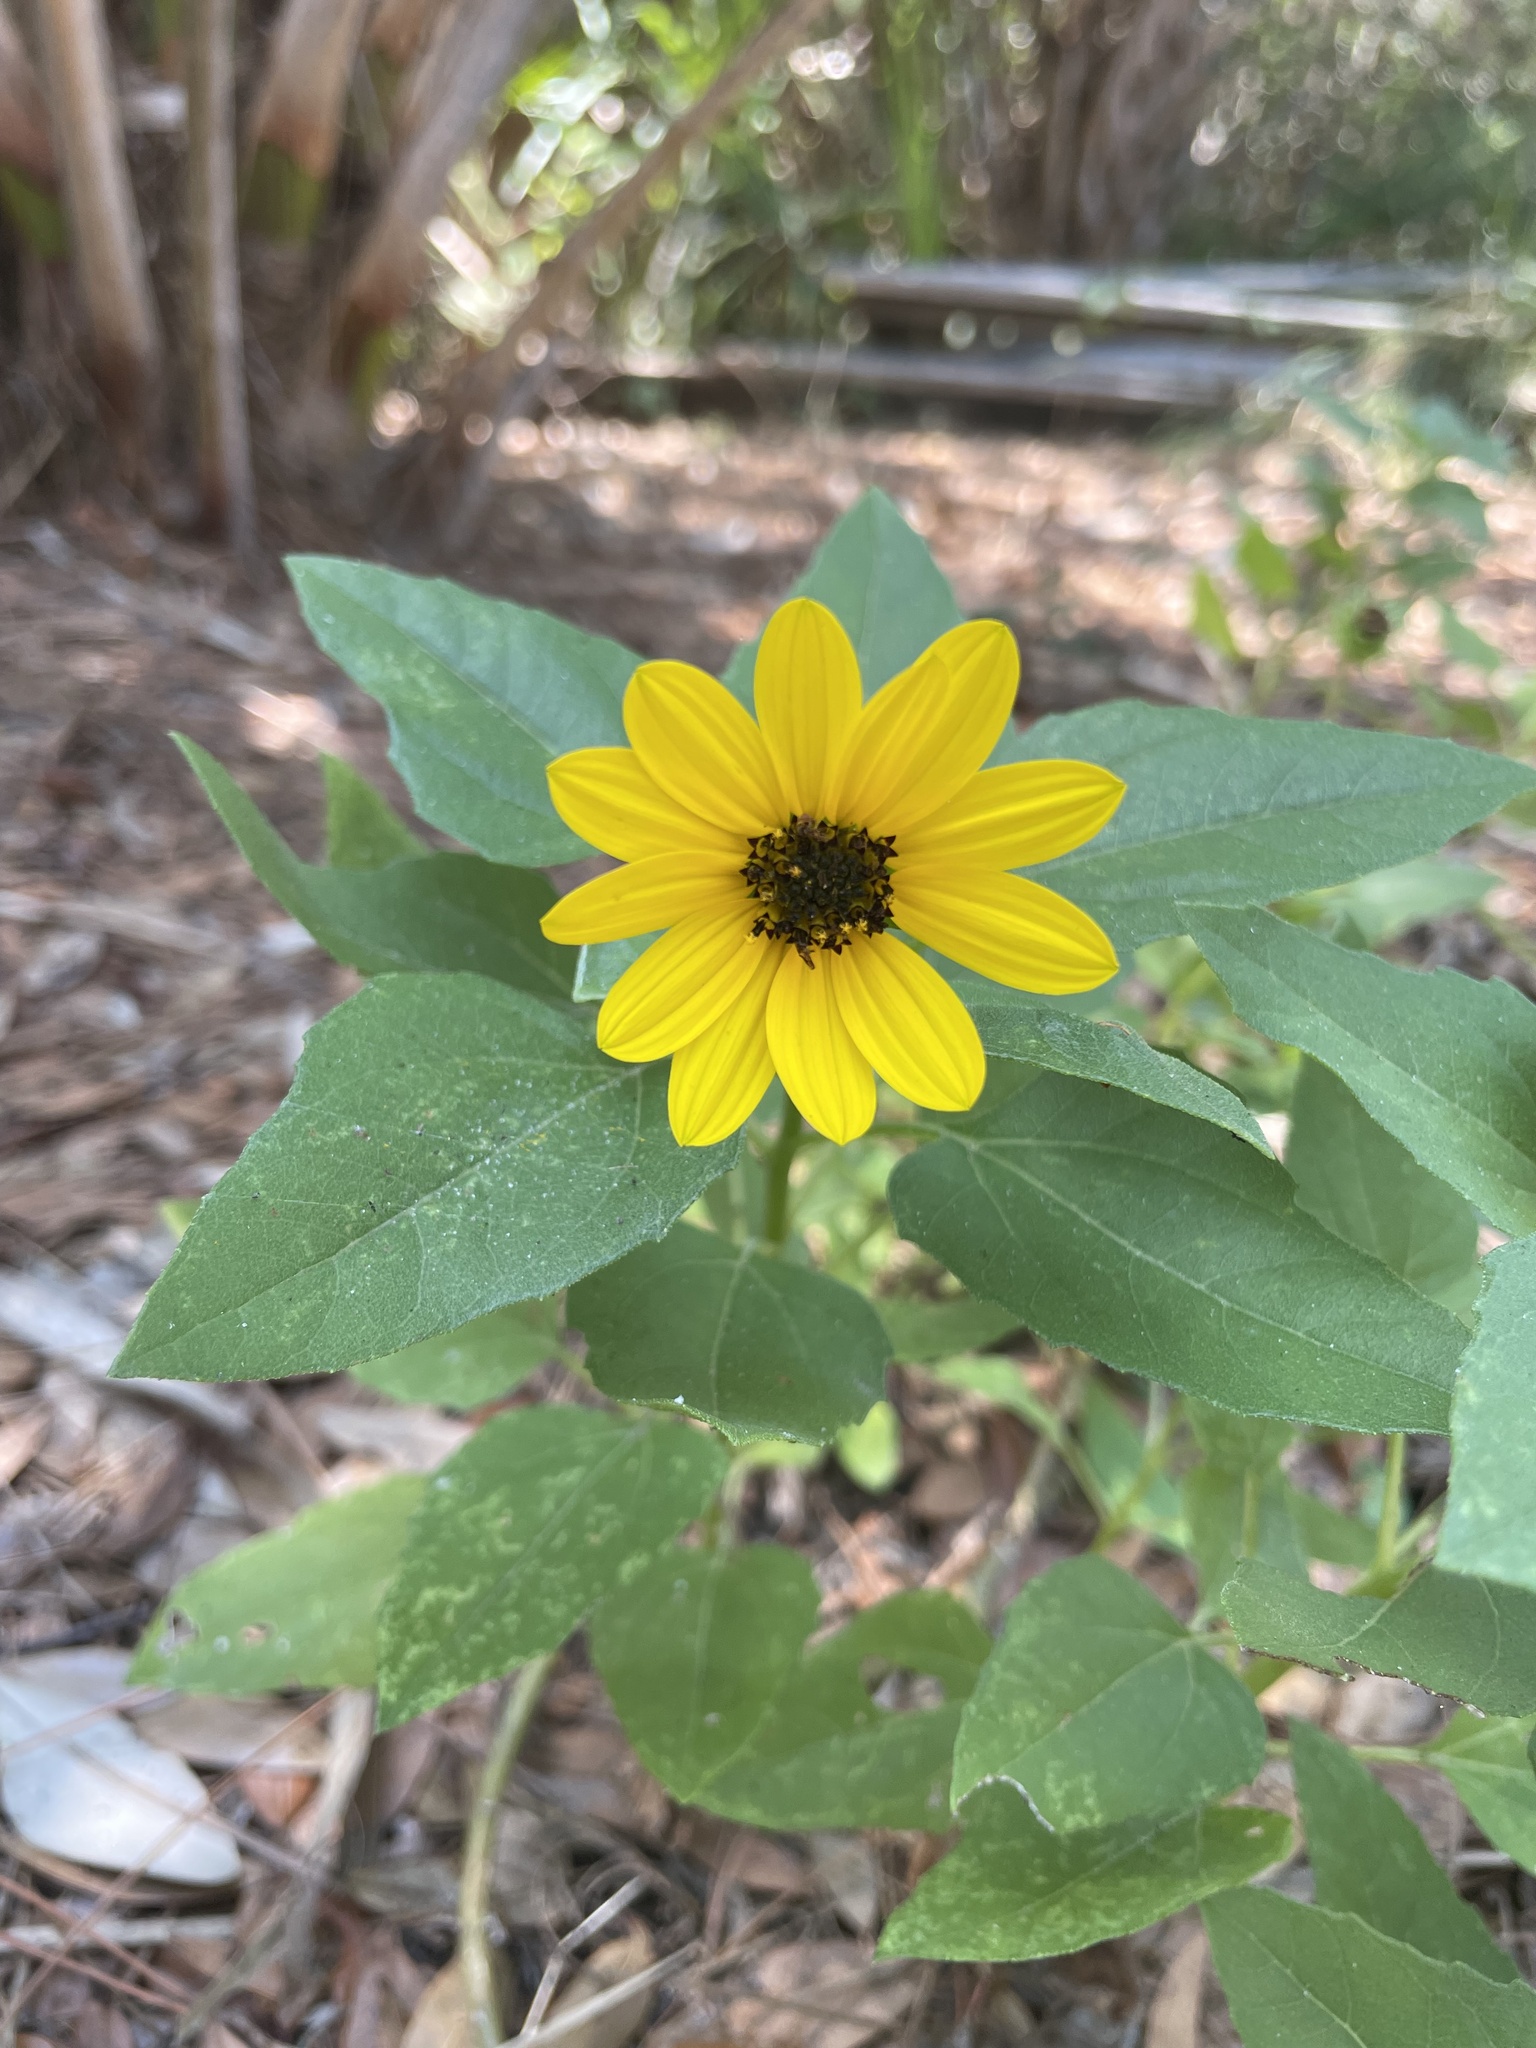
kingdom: Plantae
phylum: Tracheophyta
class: Magnoliopsida
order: Asterales
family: Asteraceae
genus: Helianthus
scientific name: Helianthus debilis
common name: Weak sunflower
